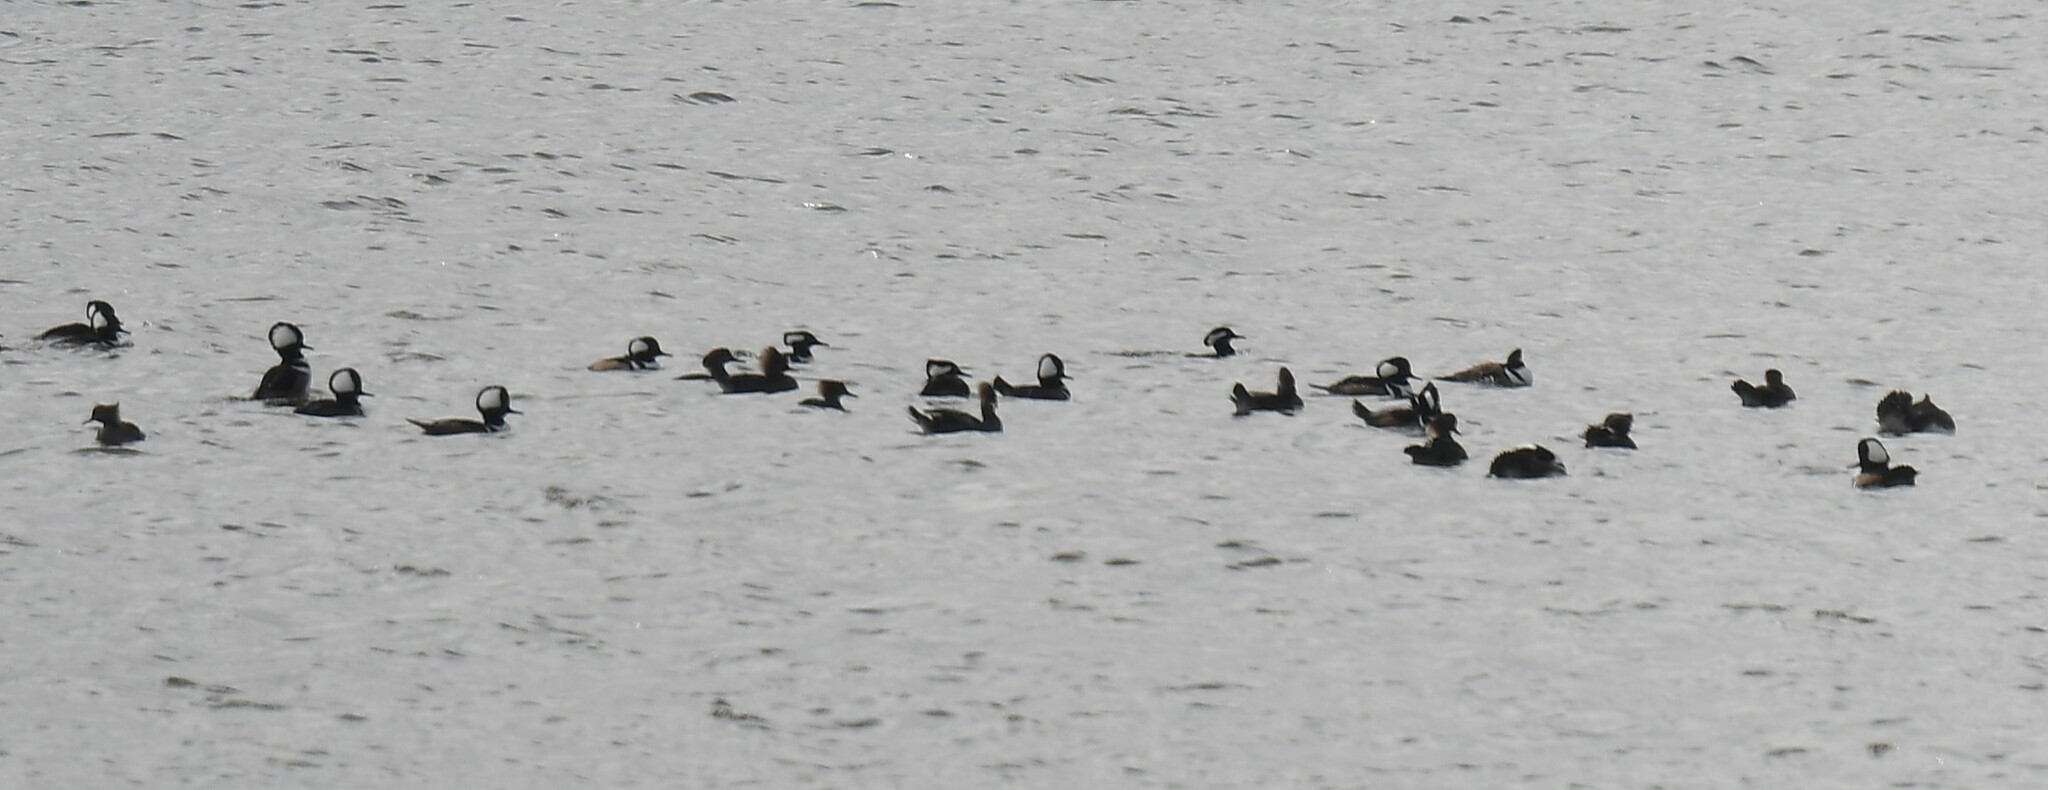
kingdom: Animalia
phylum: Chordata
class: Aves
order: Anseriformes
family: Anatidae
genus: Lophodytes
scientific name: Lophodytes cucullatus
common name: Hooded merganser
